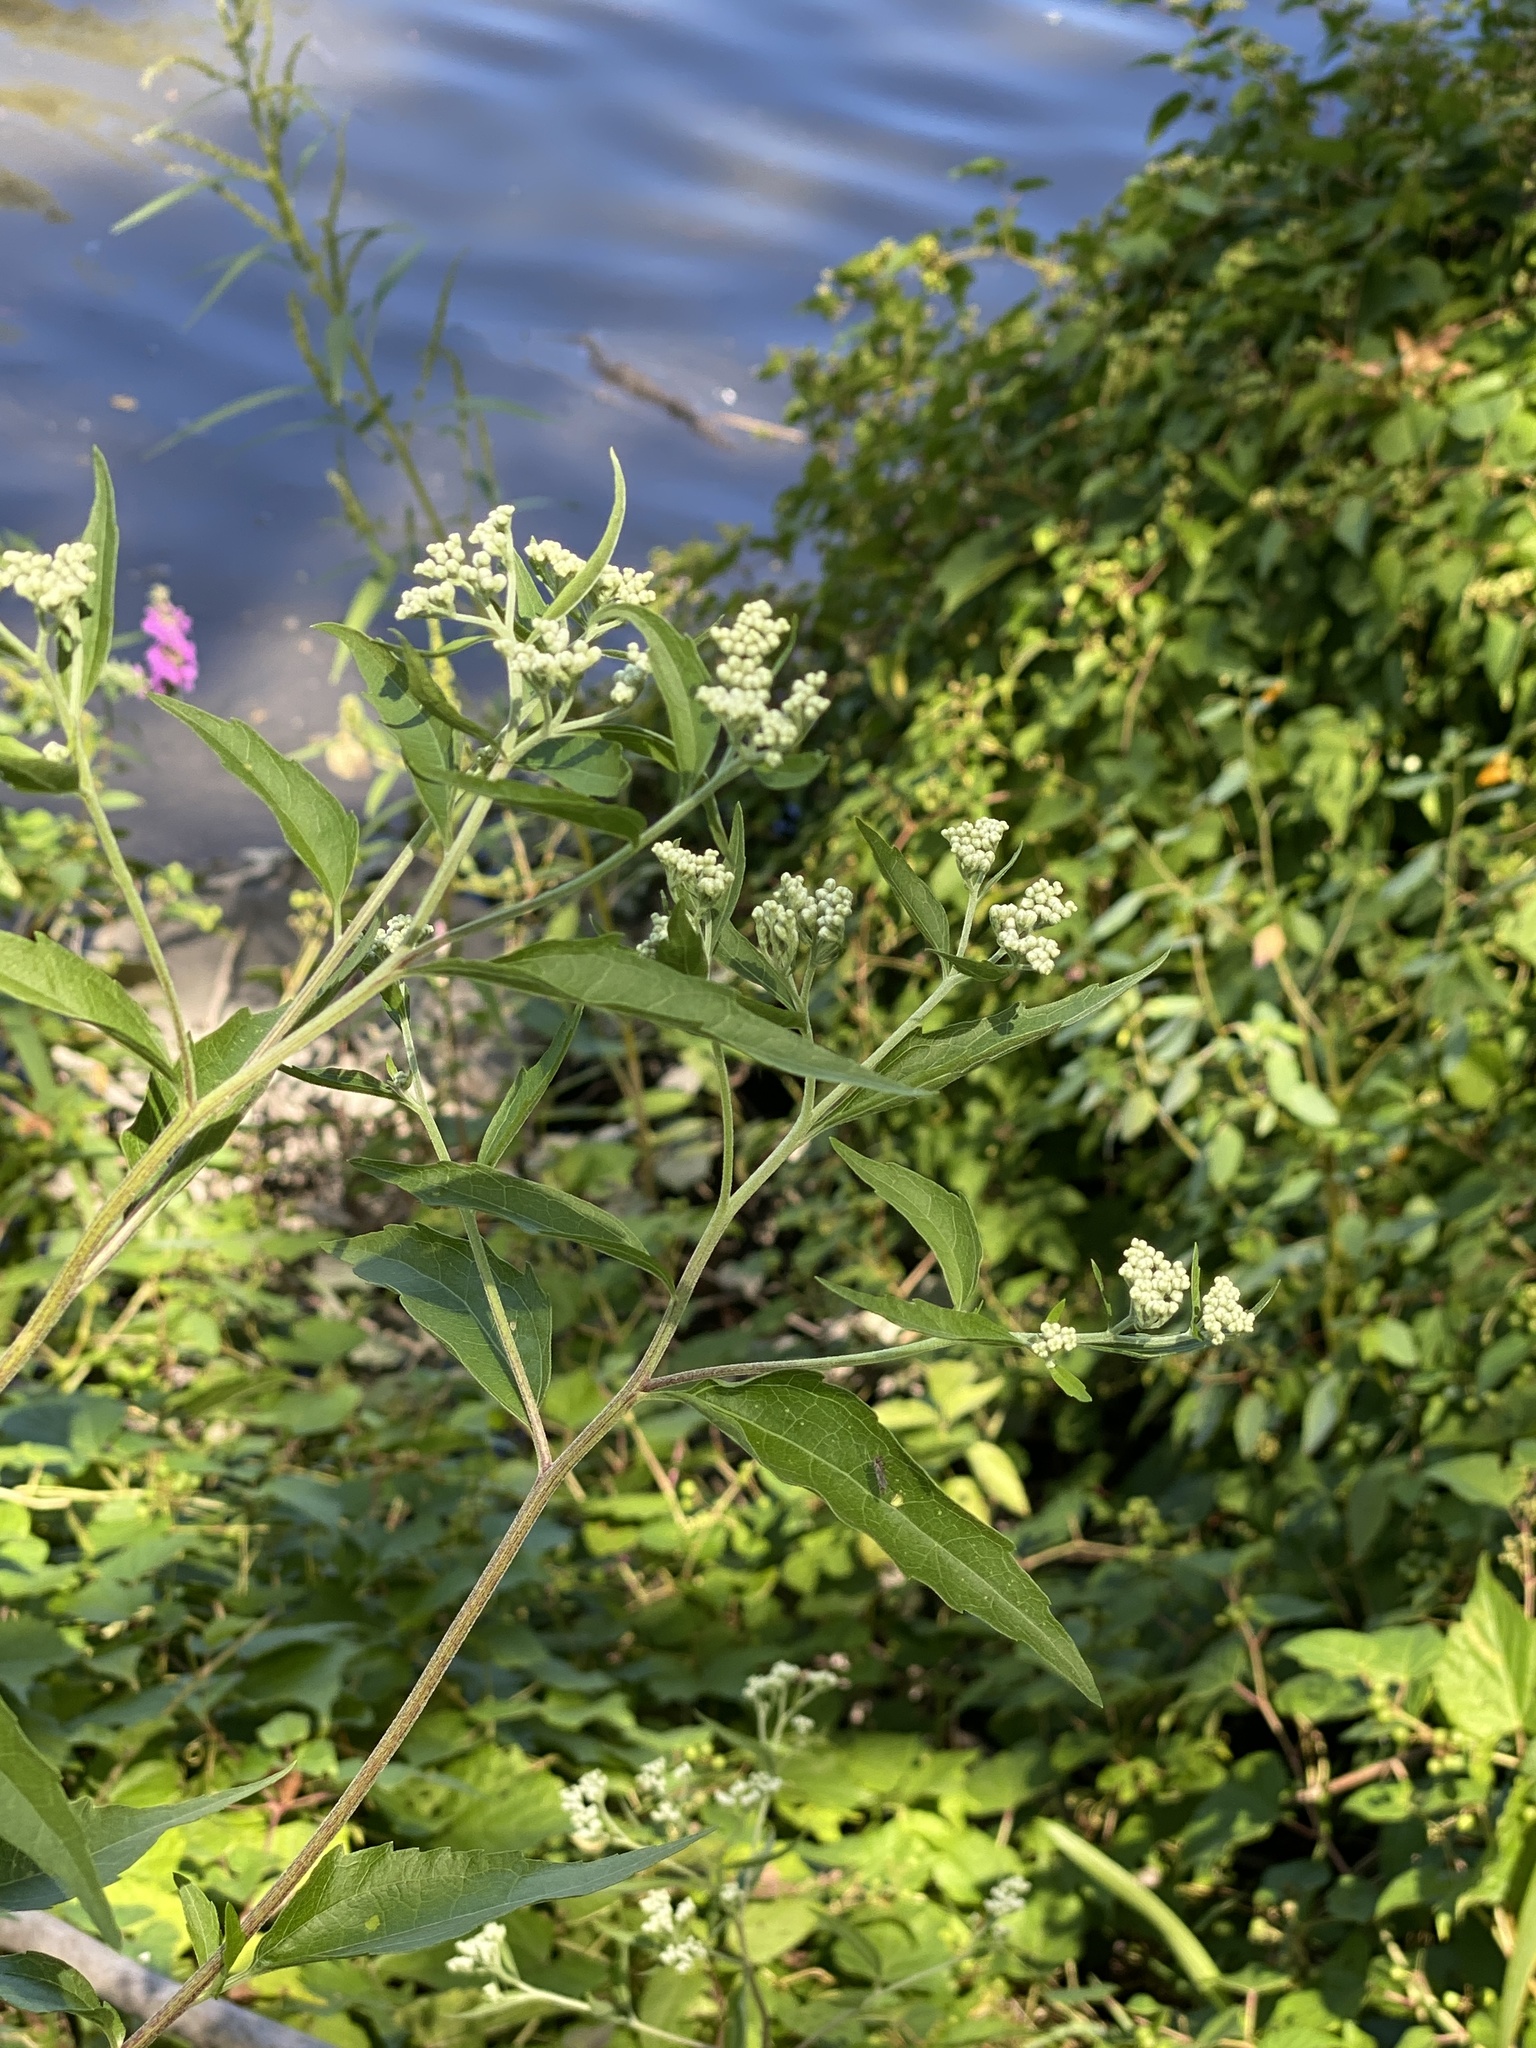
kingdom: Plantae
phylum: Tracheophyta
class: Magnoliopsida
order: Asterales
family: Asteraceae
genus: Eupatorium
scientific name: Eupatorium serotinum
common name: Late boneset
